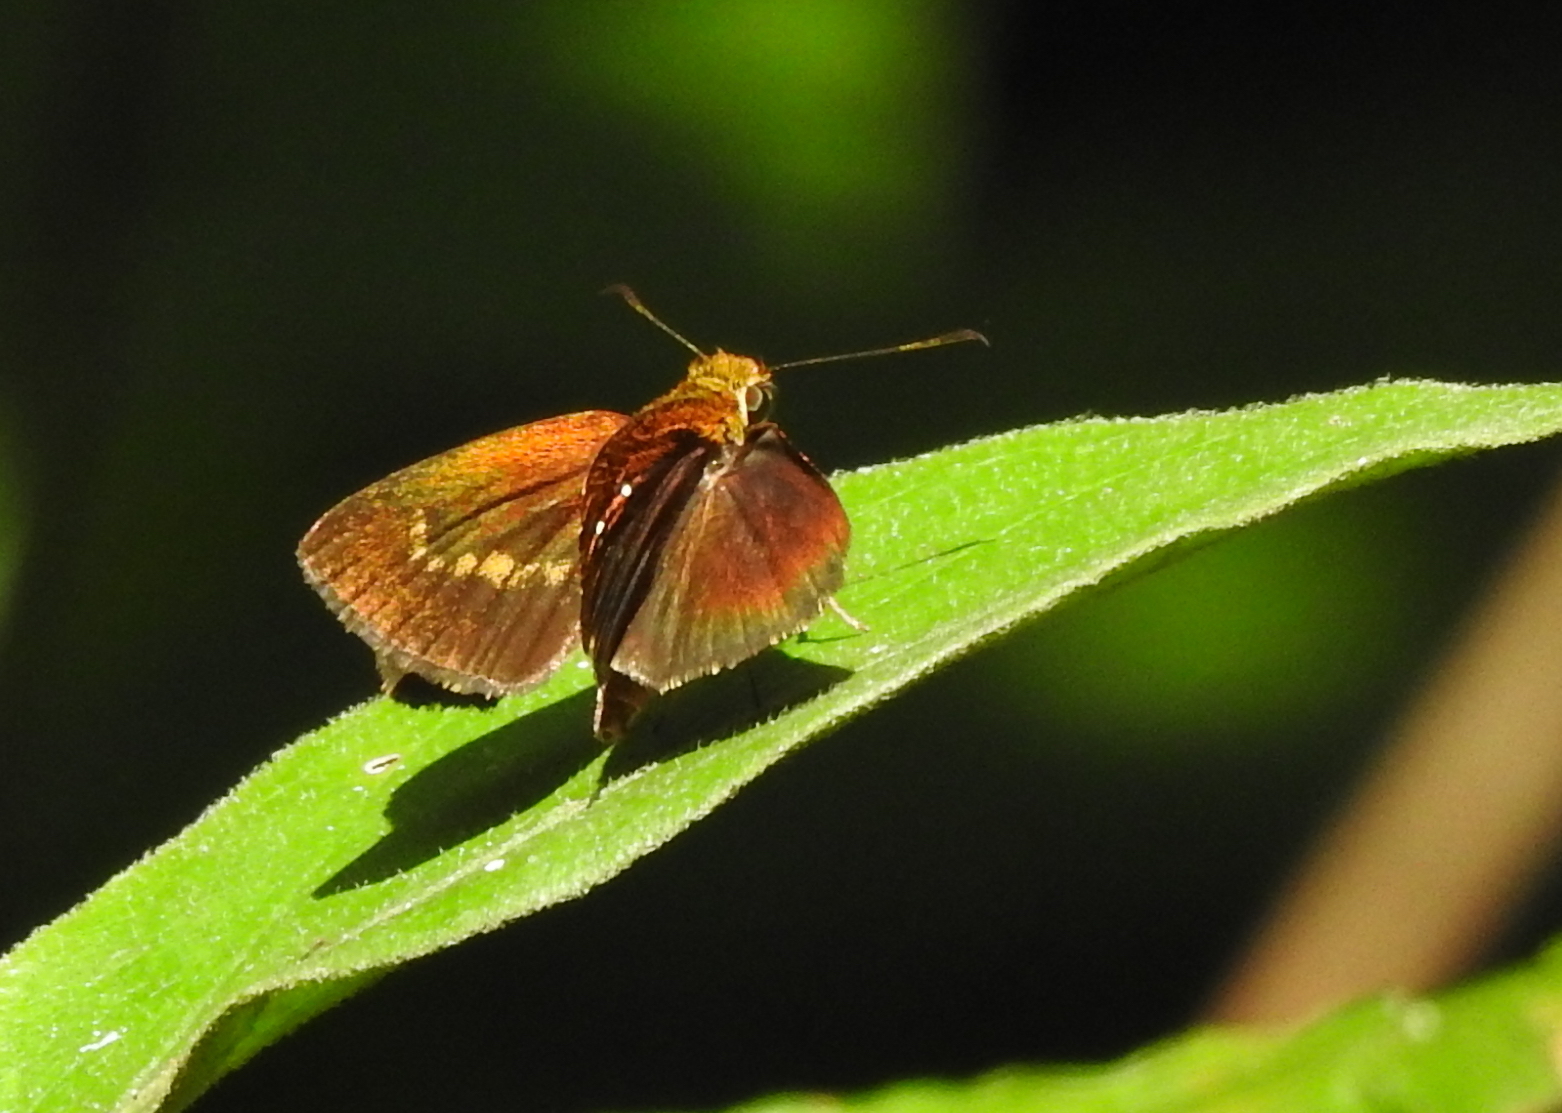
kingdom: Animalia
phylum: Arthropoda
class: Insecta
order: Lepidoptera
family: Hesperiidae
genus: Iambrix
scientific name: Iambrix salsala
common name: Chestnut bob
